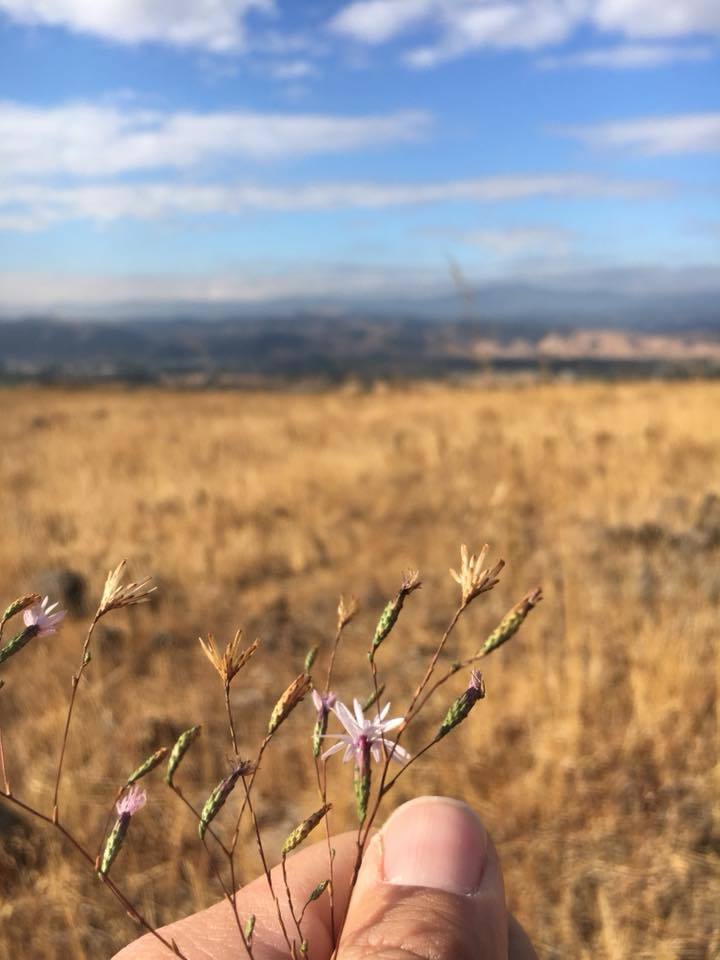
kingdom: Plantae
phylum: Tracheophyta
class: Magnoliopsida
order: Asterales
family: Asteraceae
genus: Lessingia
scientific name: Lessingia micradenia
